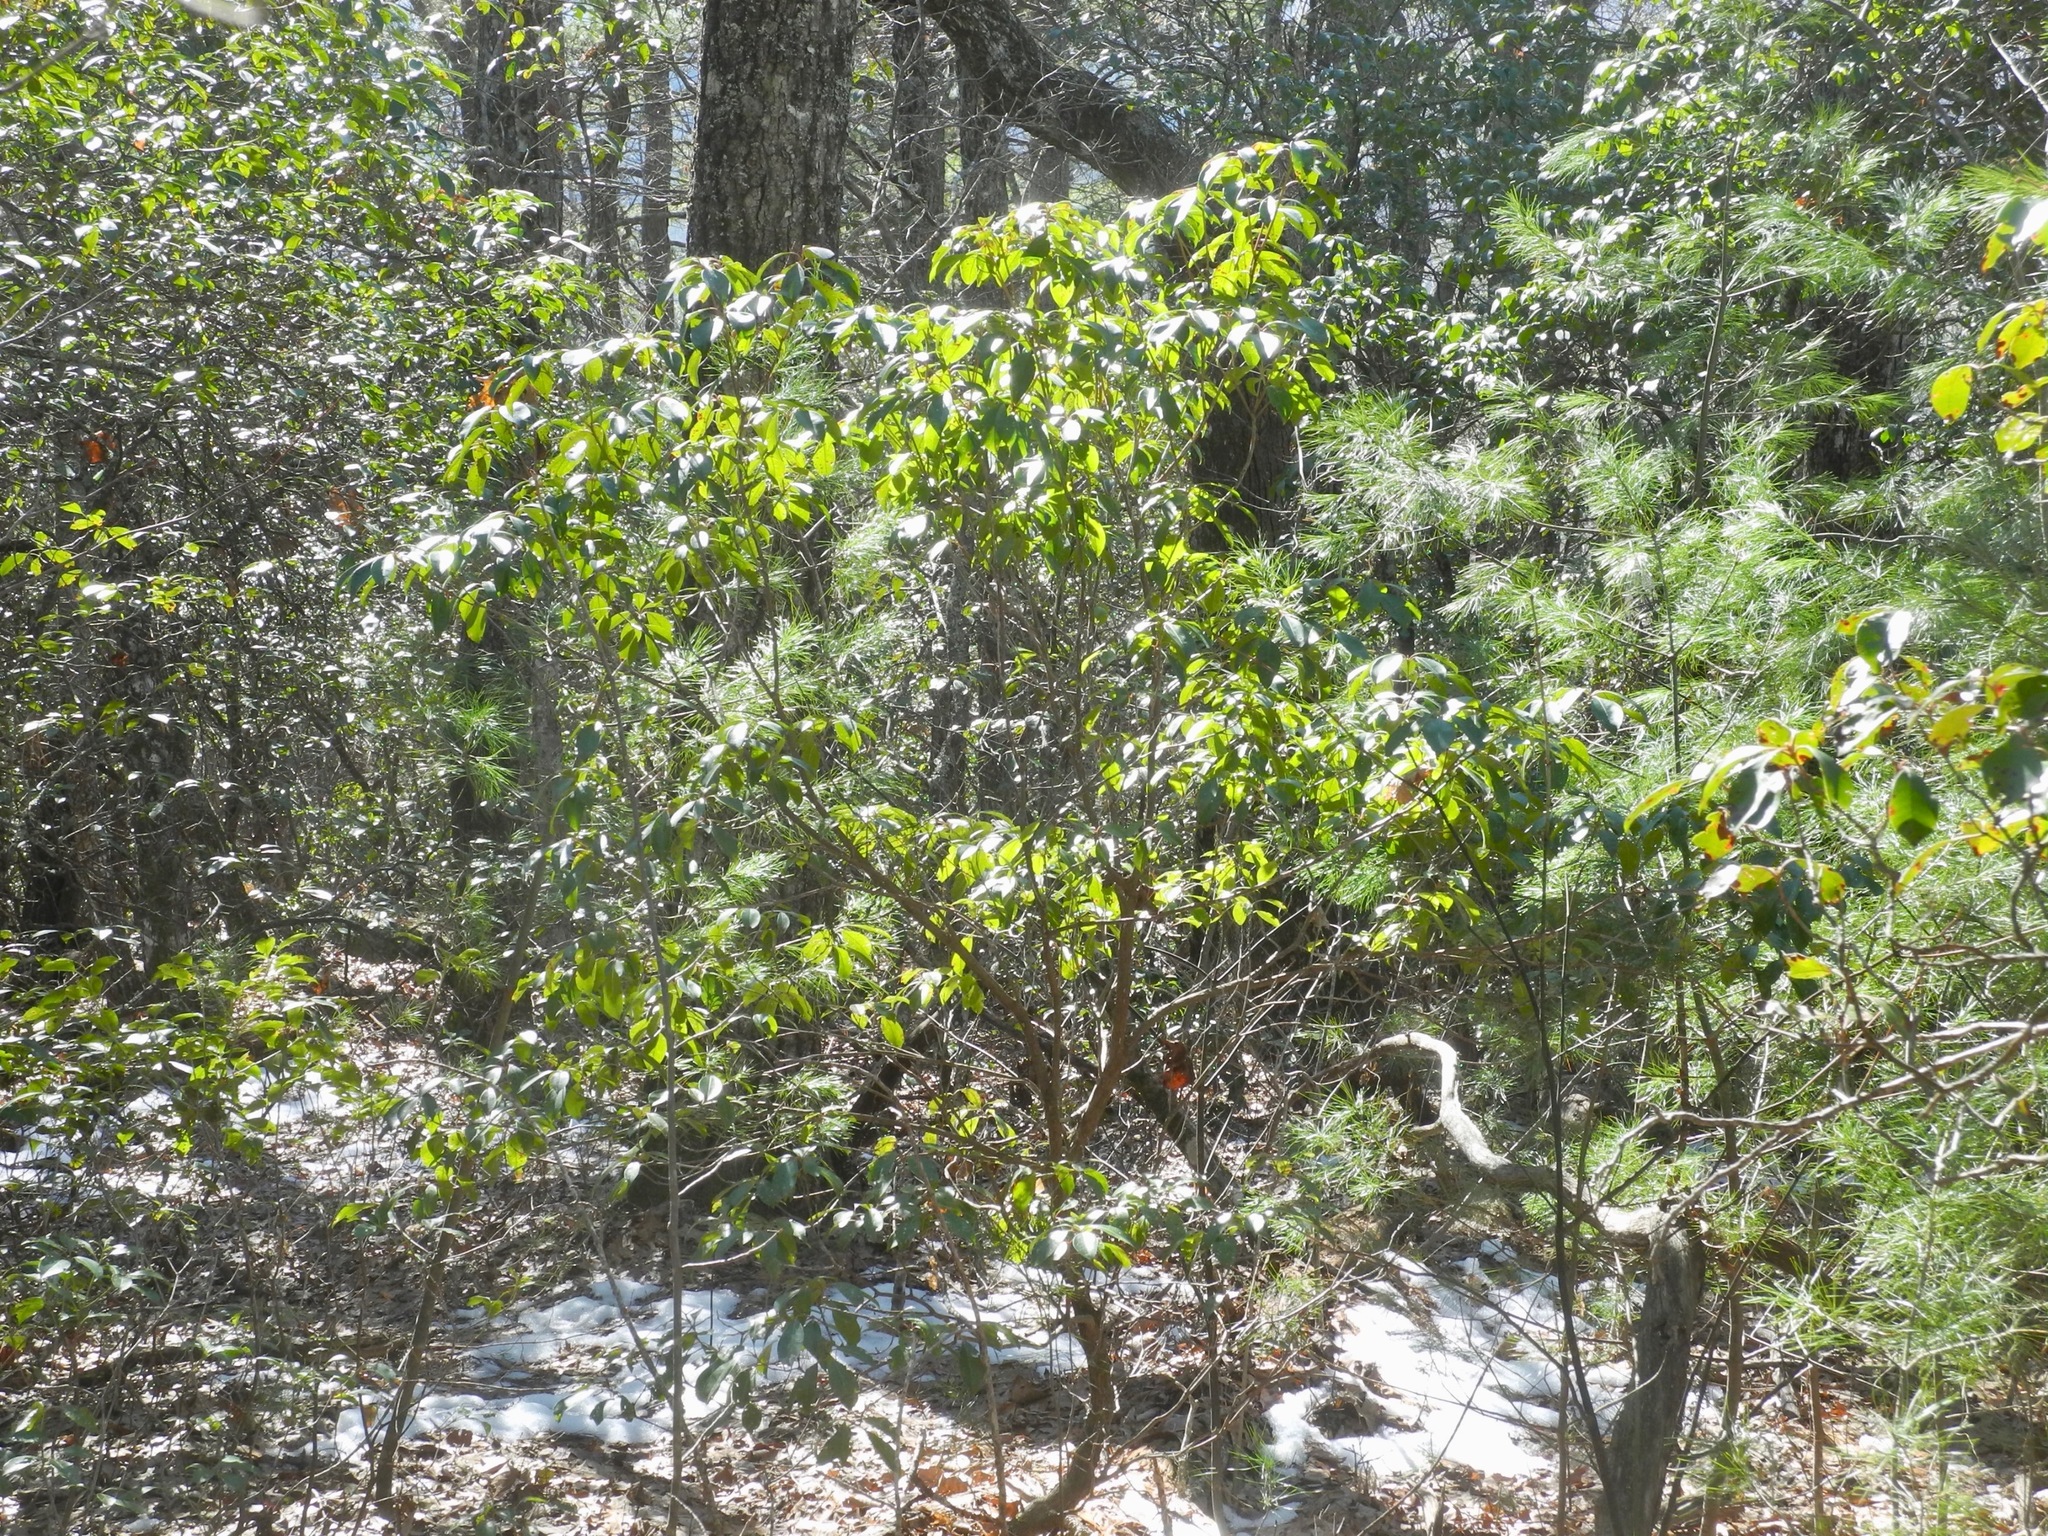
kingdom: Plantae
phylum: Tracheophyta
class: Magnoliopsida
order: Ericales
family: Ericaceae
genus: Kalmia
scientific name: Kalmia latifolia
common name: Mountain-laurel
